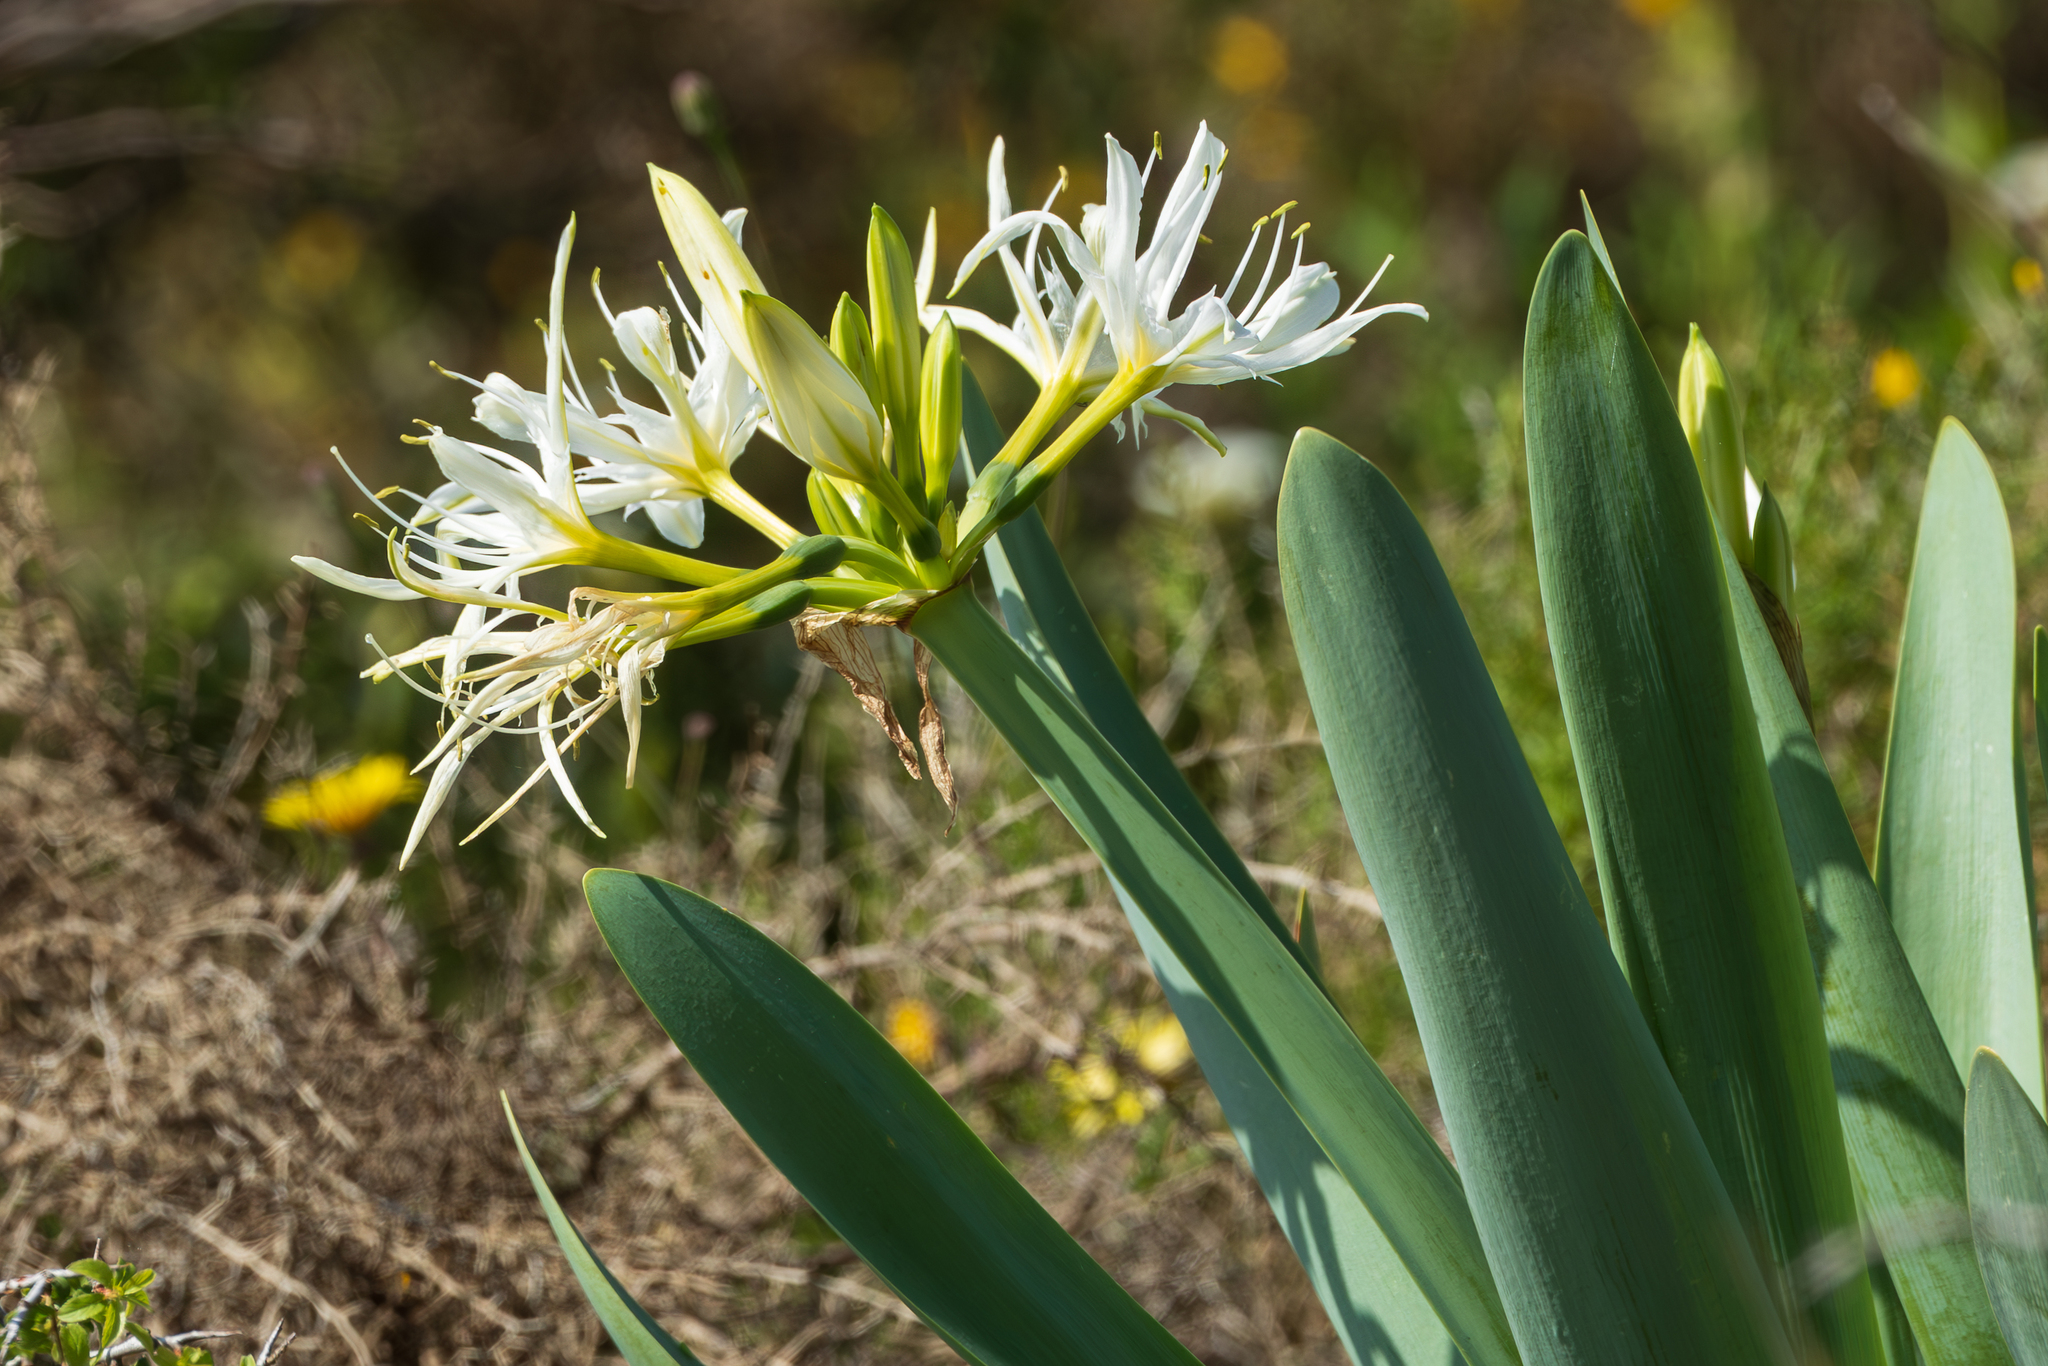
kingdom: Plantae
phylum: Tracheophyta
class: Liliopsida
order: Asparagales
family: Amaryllidaceae
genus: Pancratium
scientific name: Pancratium illyricum
